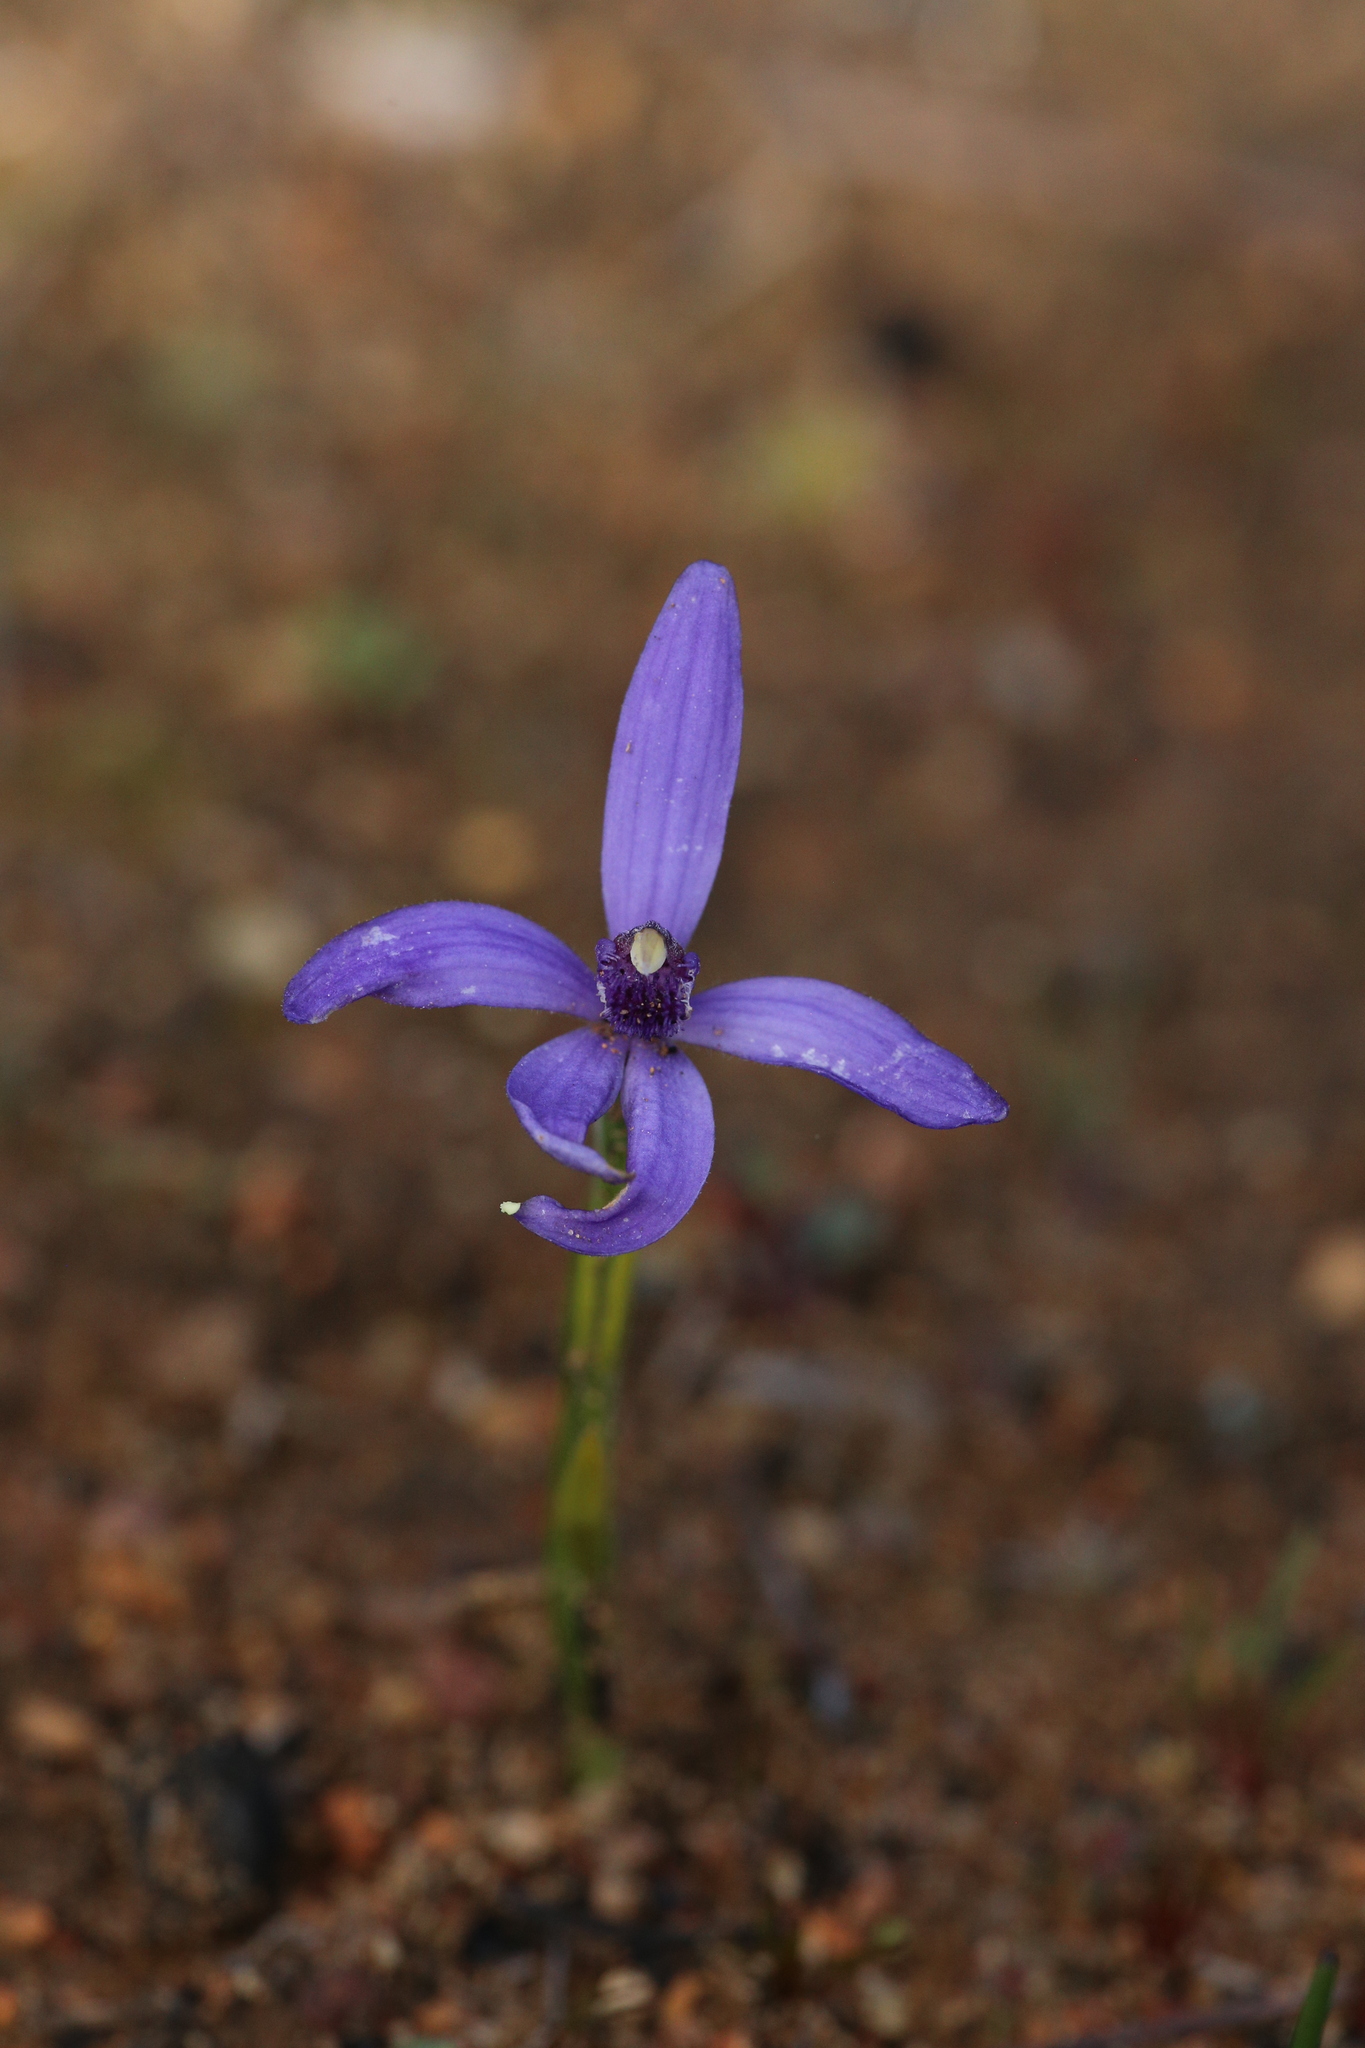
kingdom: Plantae
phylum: Tracheophyta
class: Liliopsida
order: Asparagales
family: Orchidaceae
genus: Pheladenia
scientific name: Pheladenia deformis
